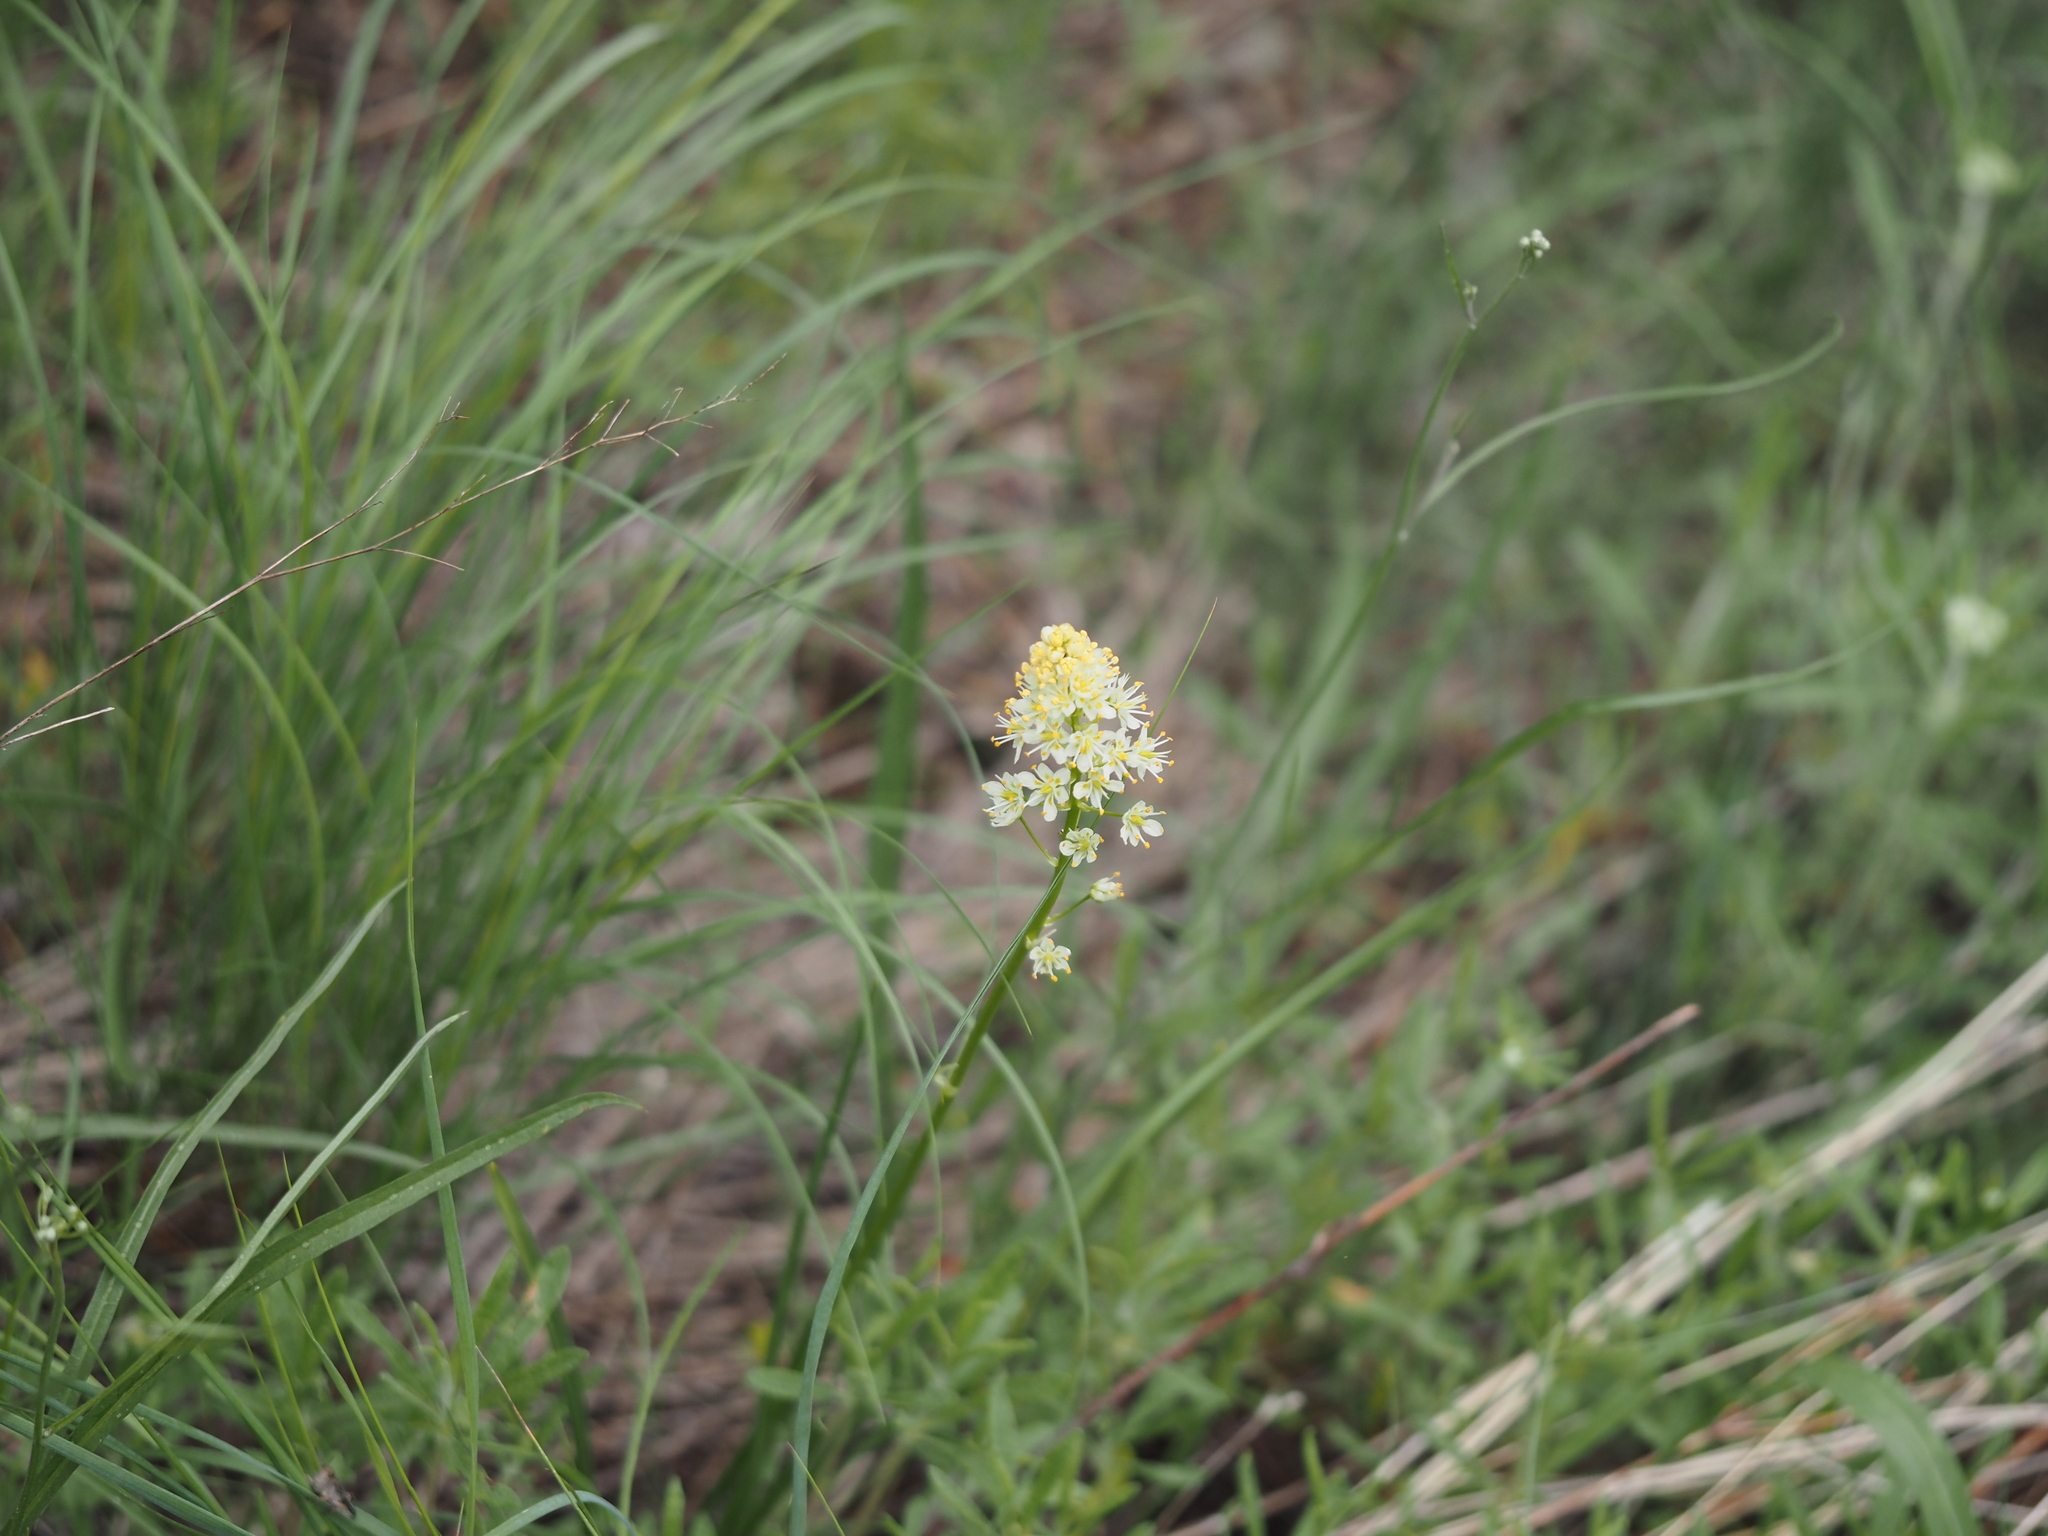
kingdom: Plantae
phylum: Tracheophyta
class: Liliopsida
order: Liliales
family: Melanthiaceae
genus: Toxicoscordion
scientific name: Toxicoscordion venenosum
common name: Meadow death camas
